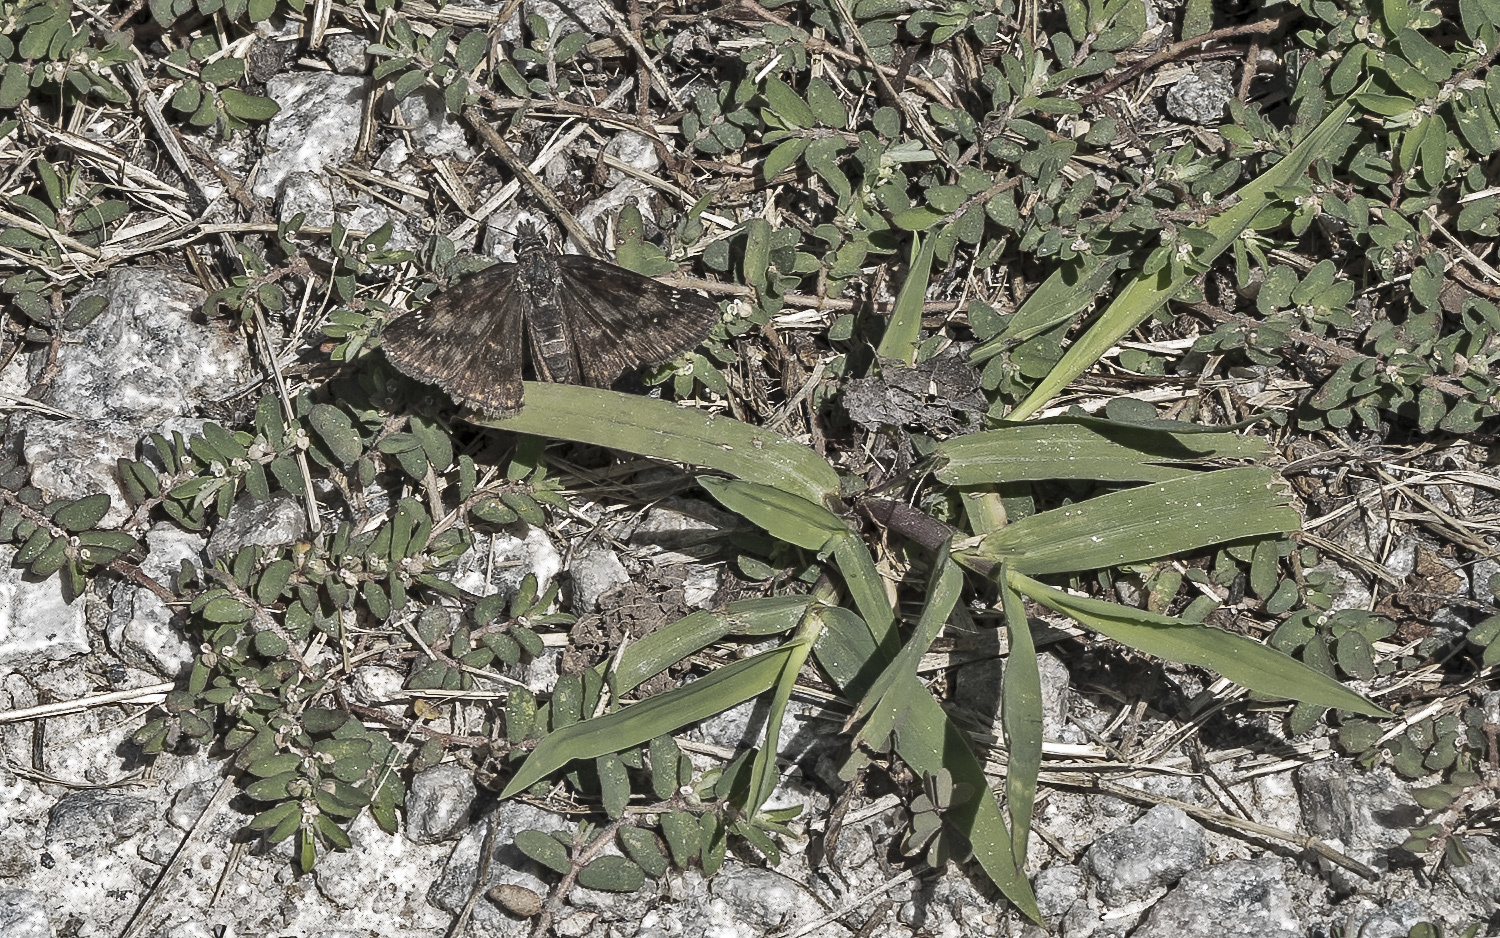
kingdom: Animalia
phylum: Arthropoda
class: Insecta
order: Lepidoptera
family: Hesperiidae
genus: Erynnis
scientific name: Erynnis baptisiae
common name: Wild indigo duskywing
